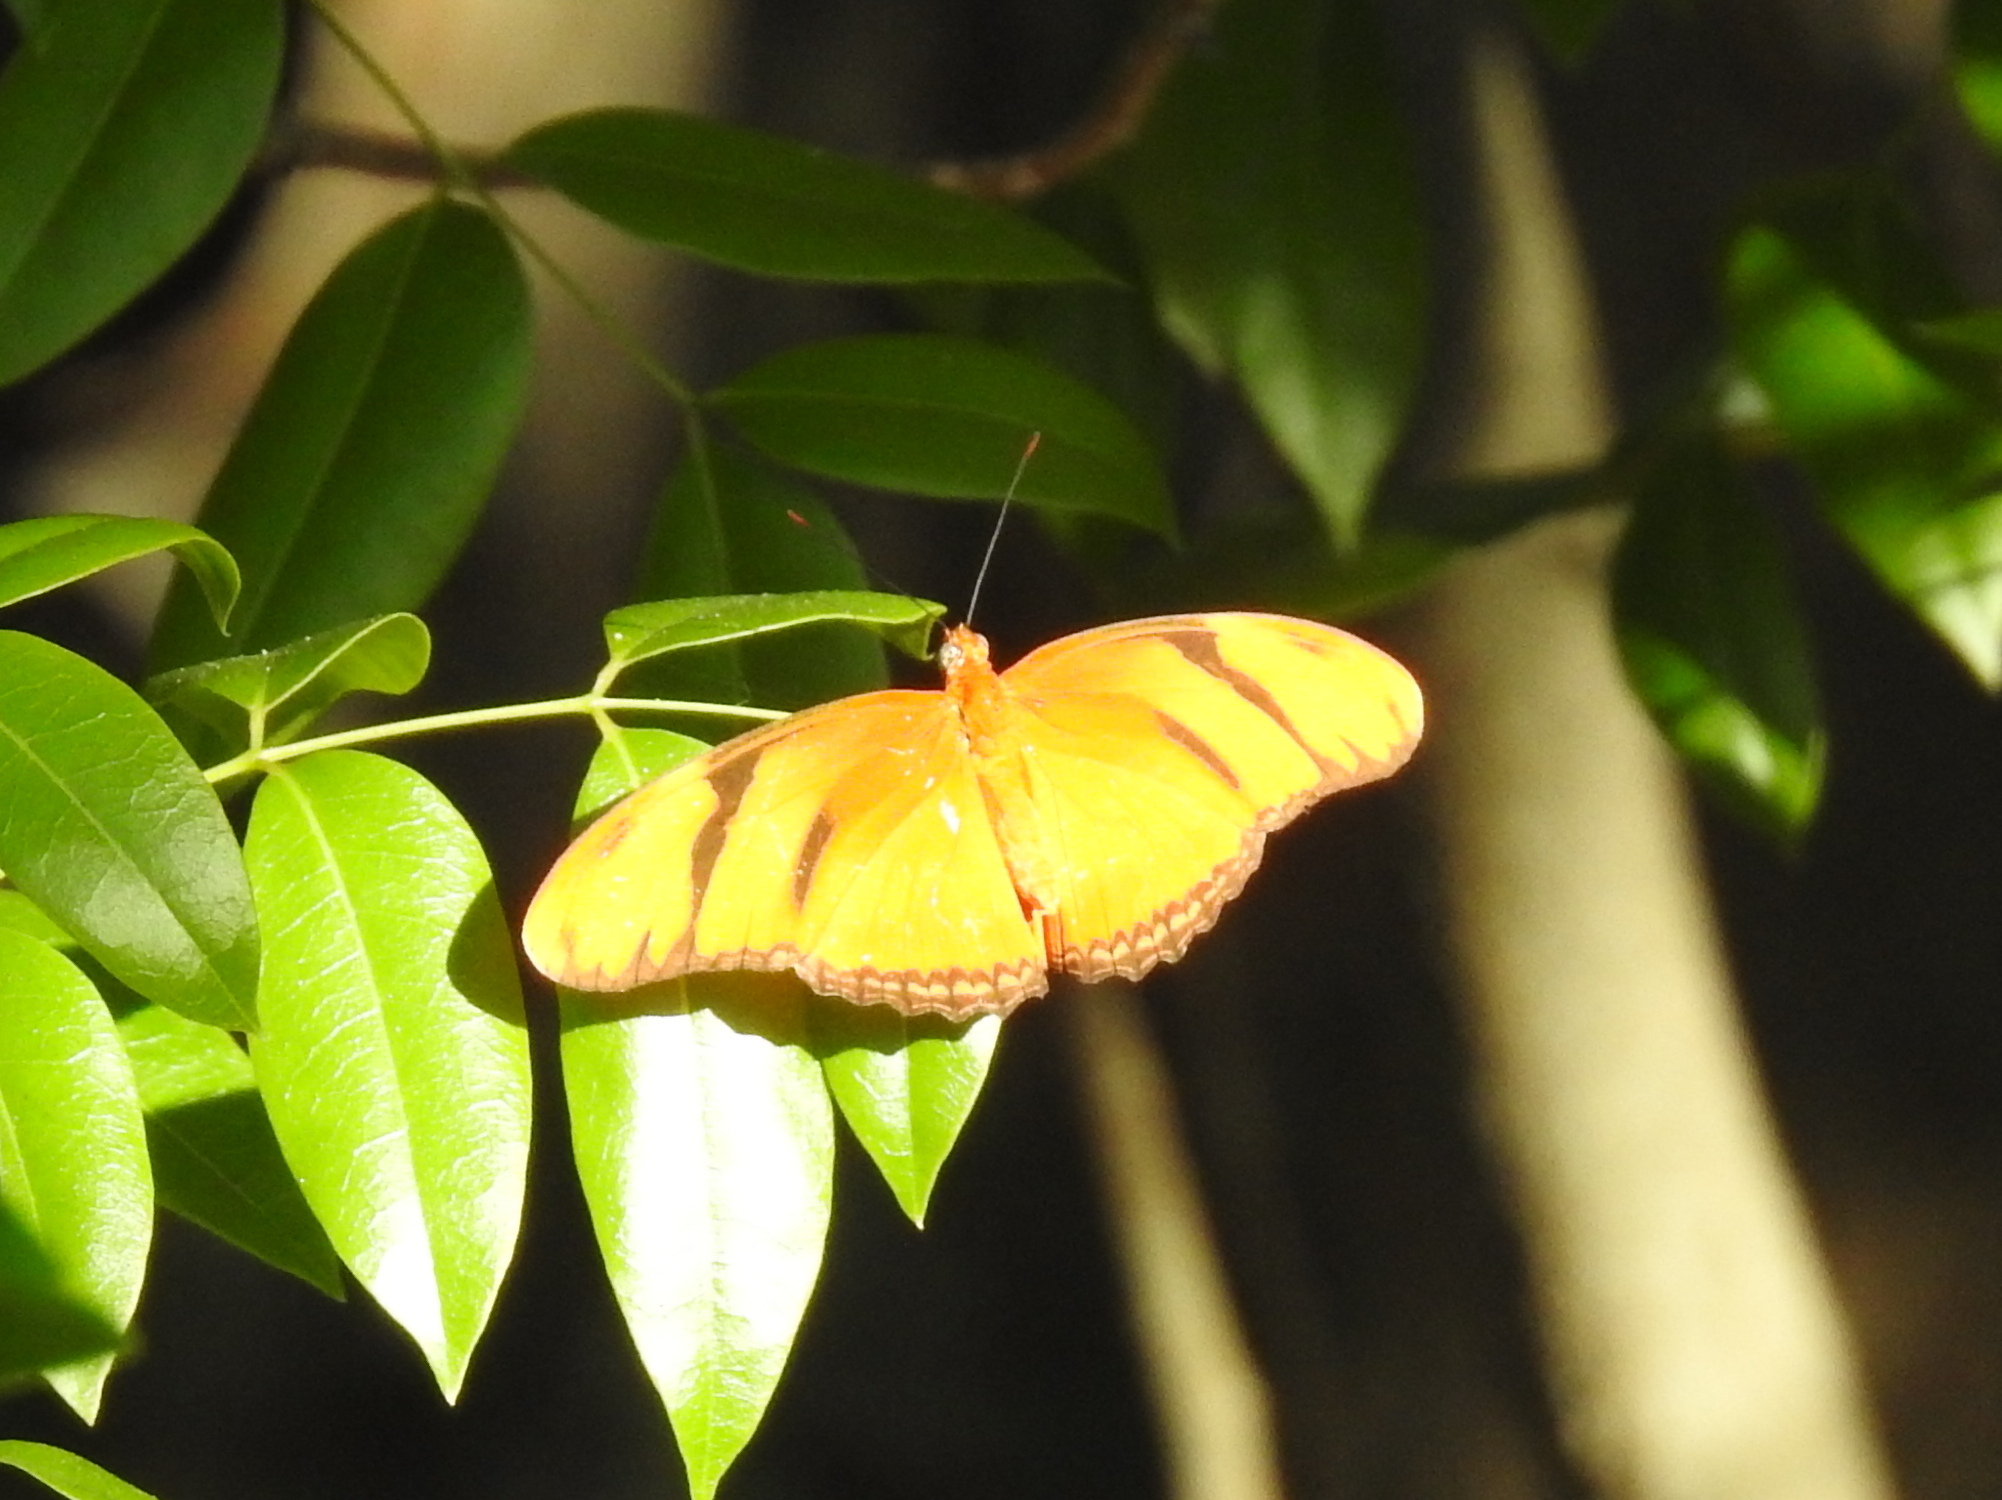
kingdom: Animalia
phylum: Arthropoda
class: Insecta
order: Lepidoptera
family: Nymphalidae
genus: Dryas
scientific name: Dryas iulia
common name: Flambeau
